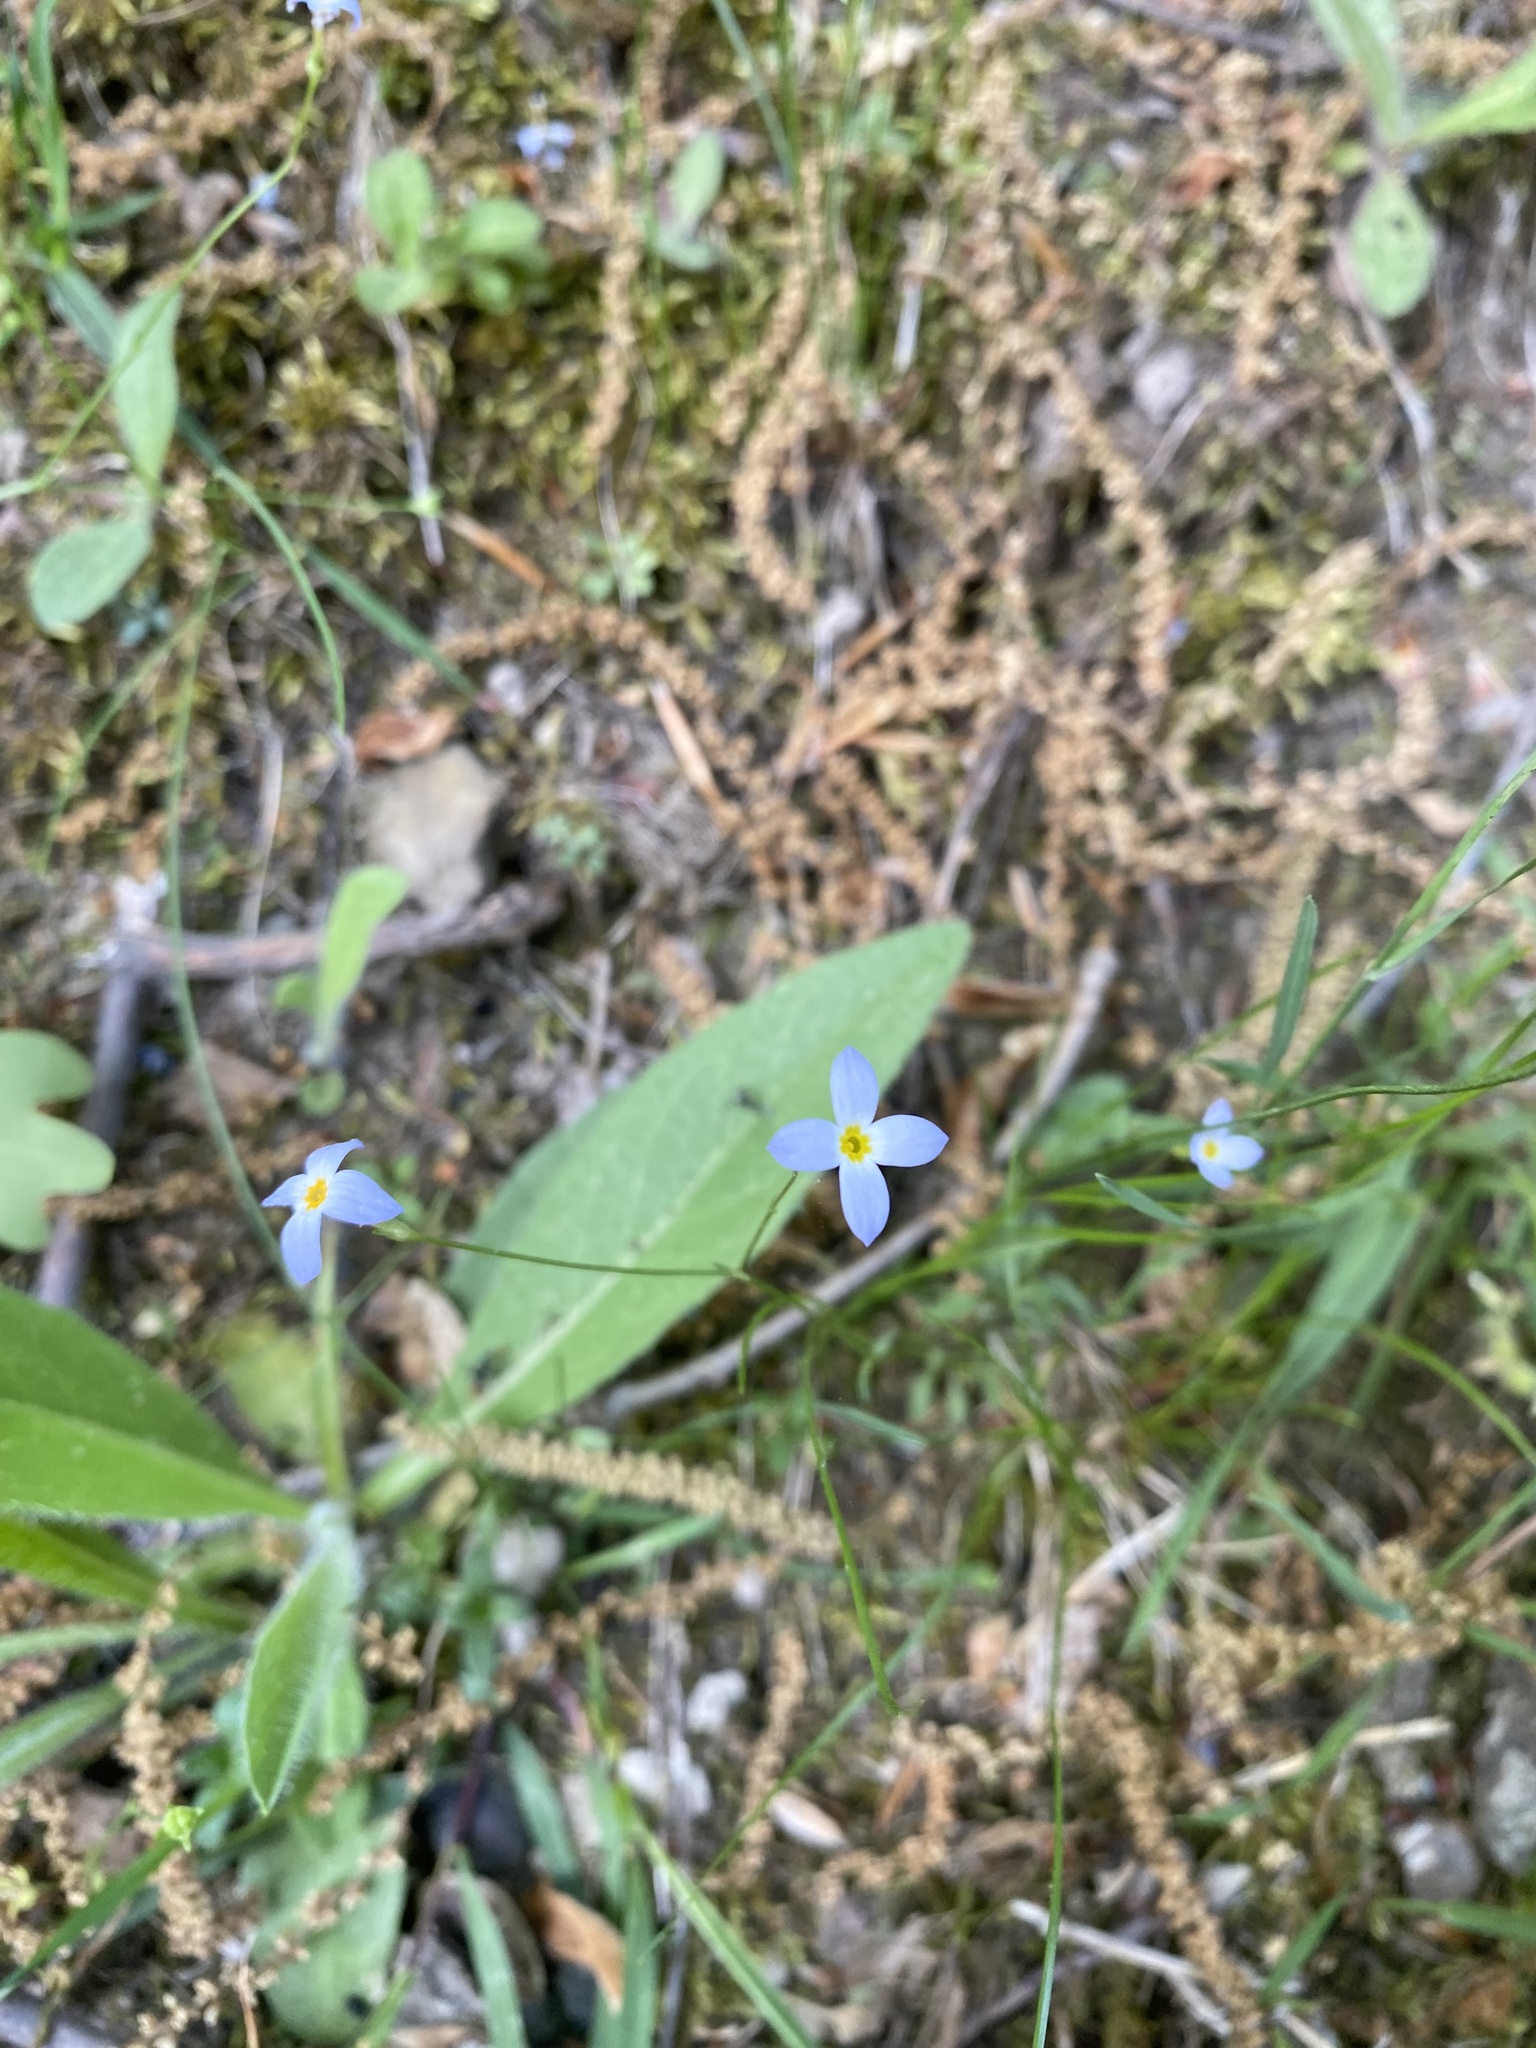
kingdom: Plantae
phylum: Tracheophyta
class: Magnoliopsida
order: Gentianales
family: Rubiaceae
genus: Houstonia
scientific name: Houstonia caerulea
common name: Bluets
